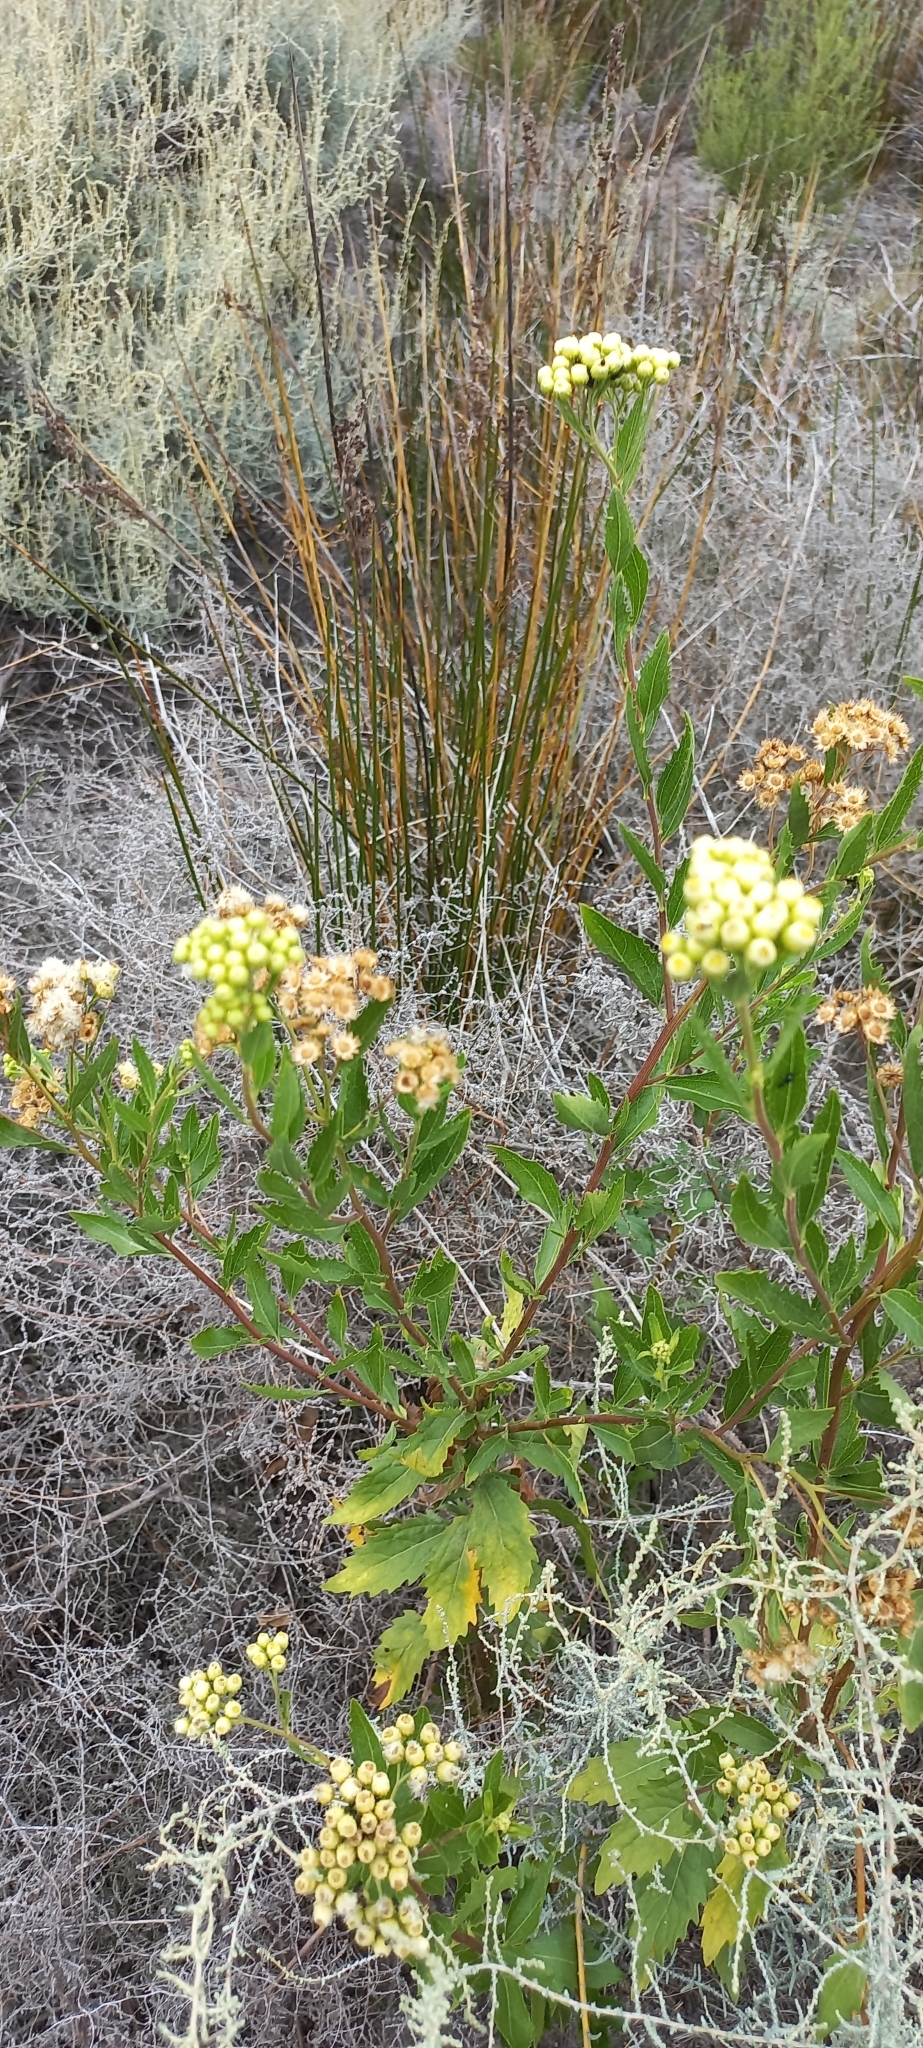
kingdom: Plantae
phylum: Tracheophyta
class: Magnoliopsida
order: Asterales
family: Asteraceae
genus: Nidorella
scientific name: Nidorella ivifolia
